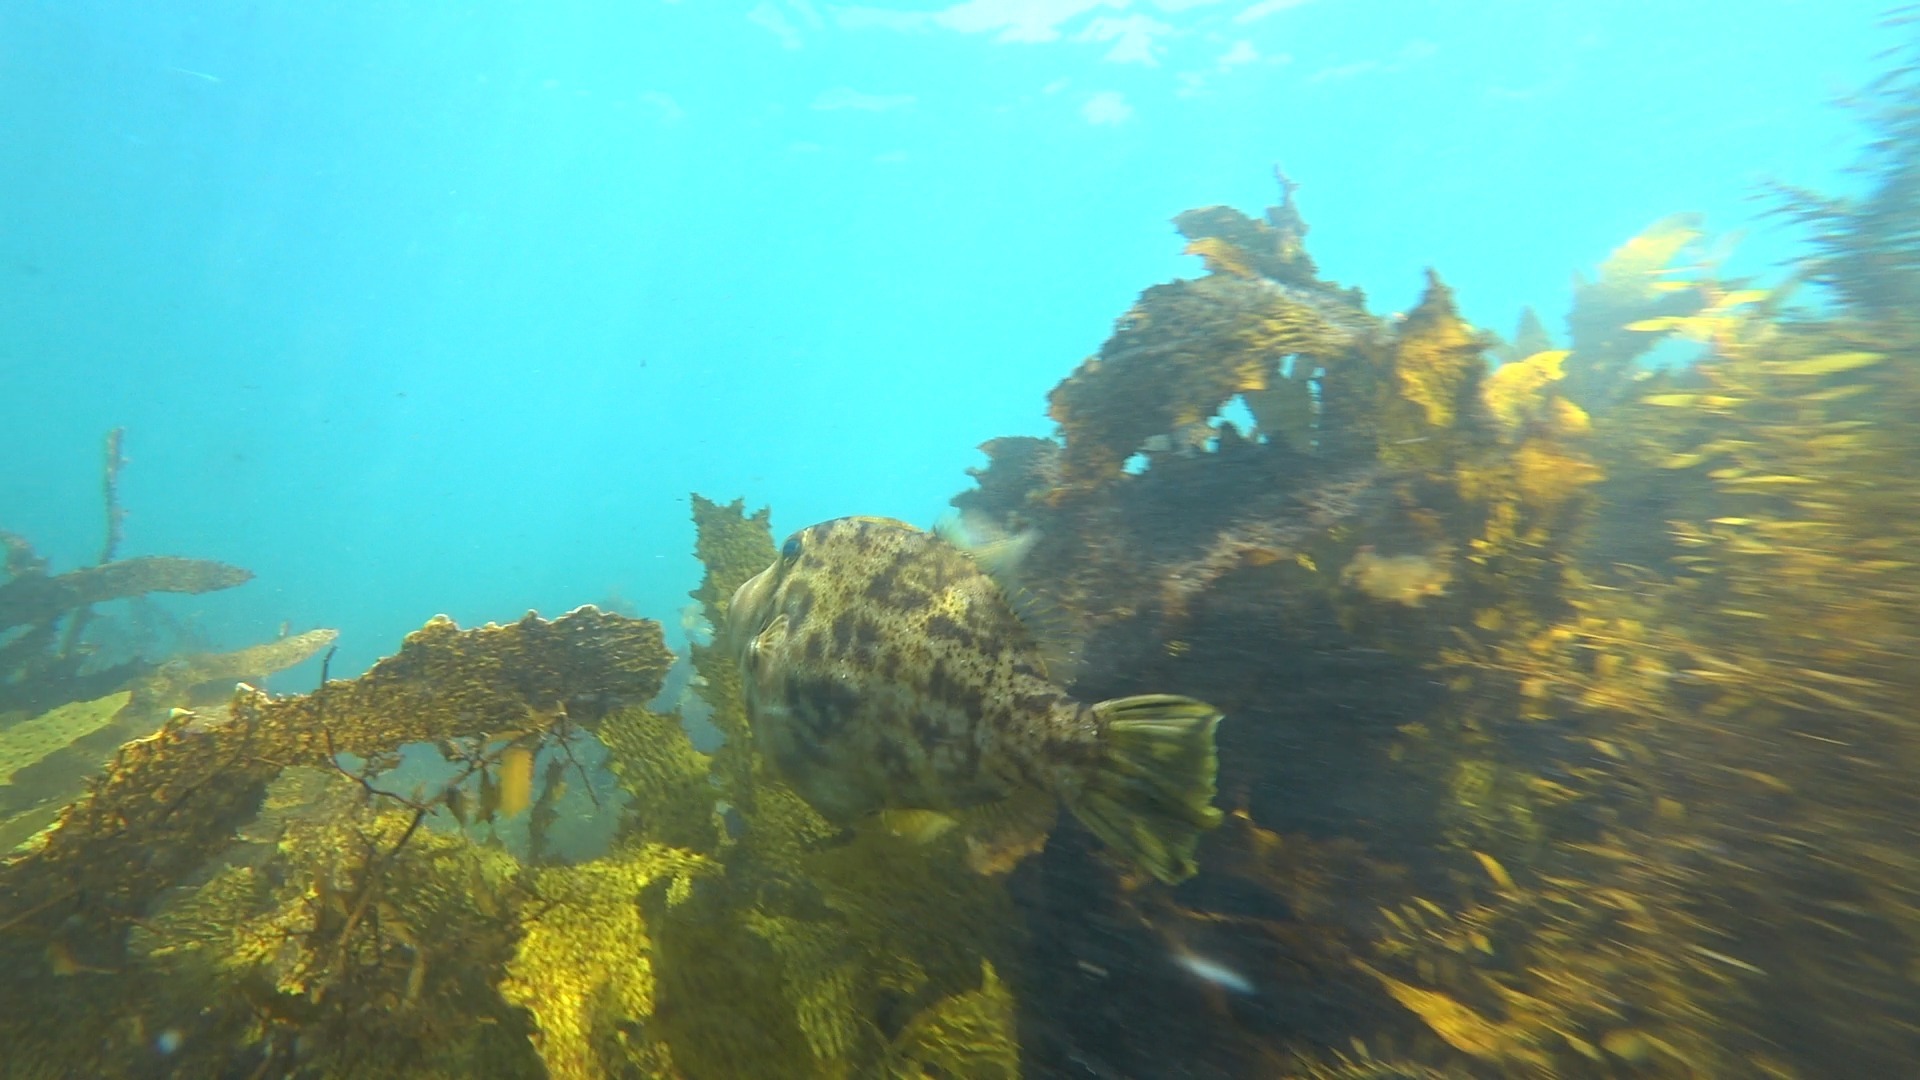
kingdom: Animalia
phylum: Chordata
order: Tetraodontiformes
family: Monacanthidae
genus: Scobinichthys
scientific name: Scobinichthys granulatus
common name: Rough leatherjacket
